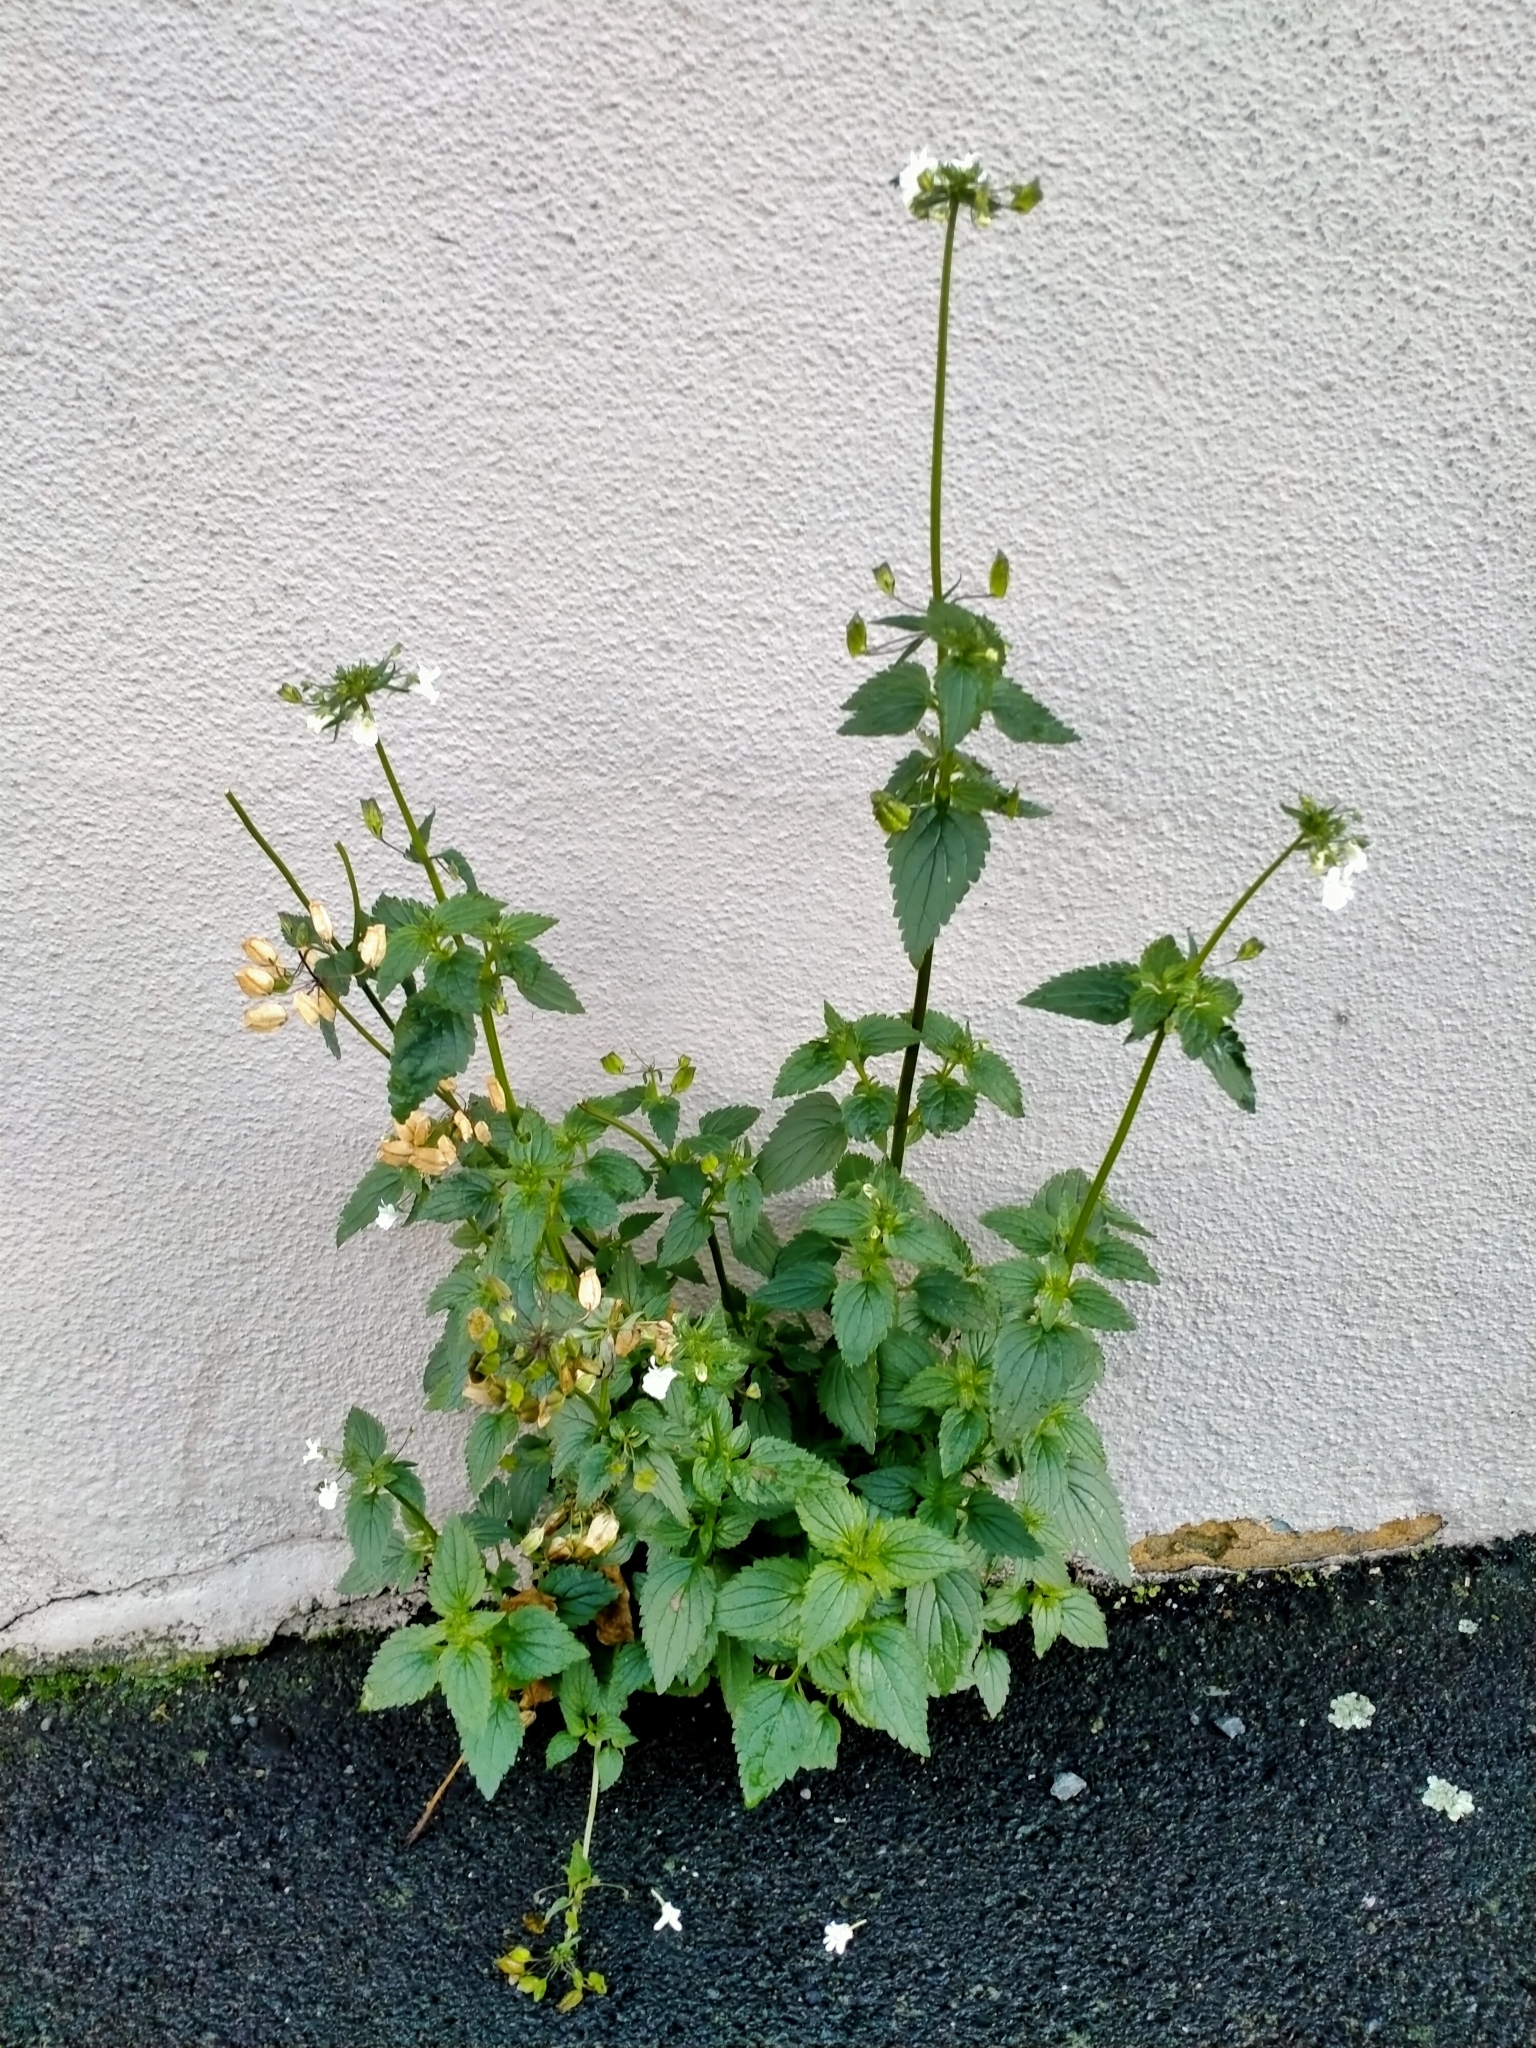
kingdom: Plantae
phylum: Tracheophyta
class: Magnoliopsida
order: Lamiales
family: Scrophulariaceae
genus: Nemesia
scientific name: Nemesia floribunda
